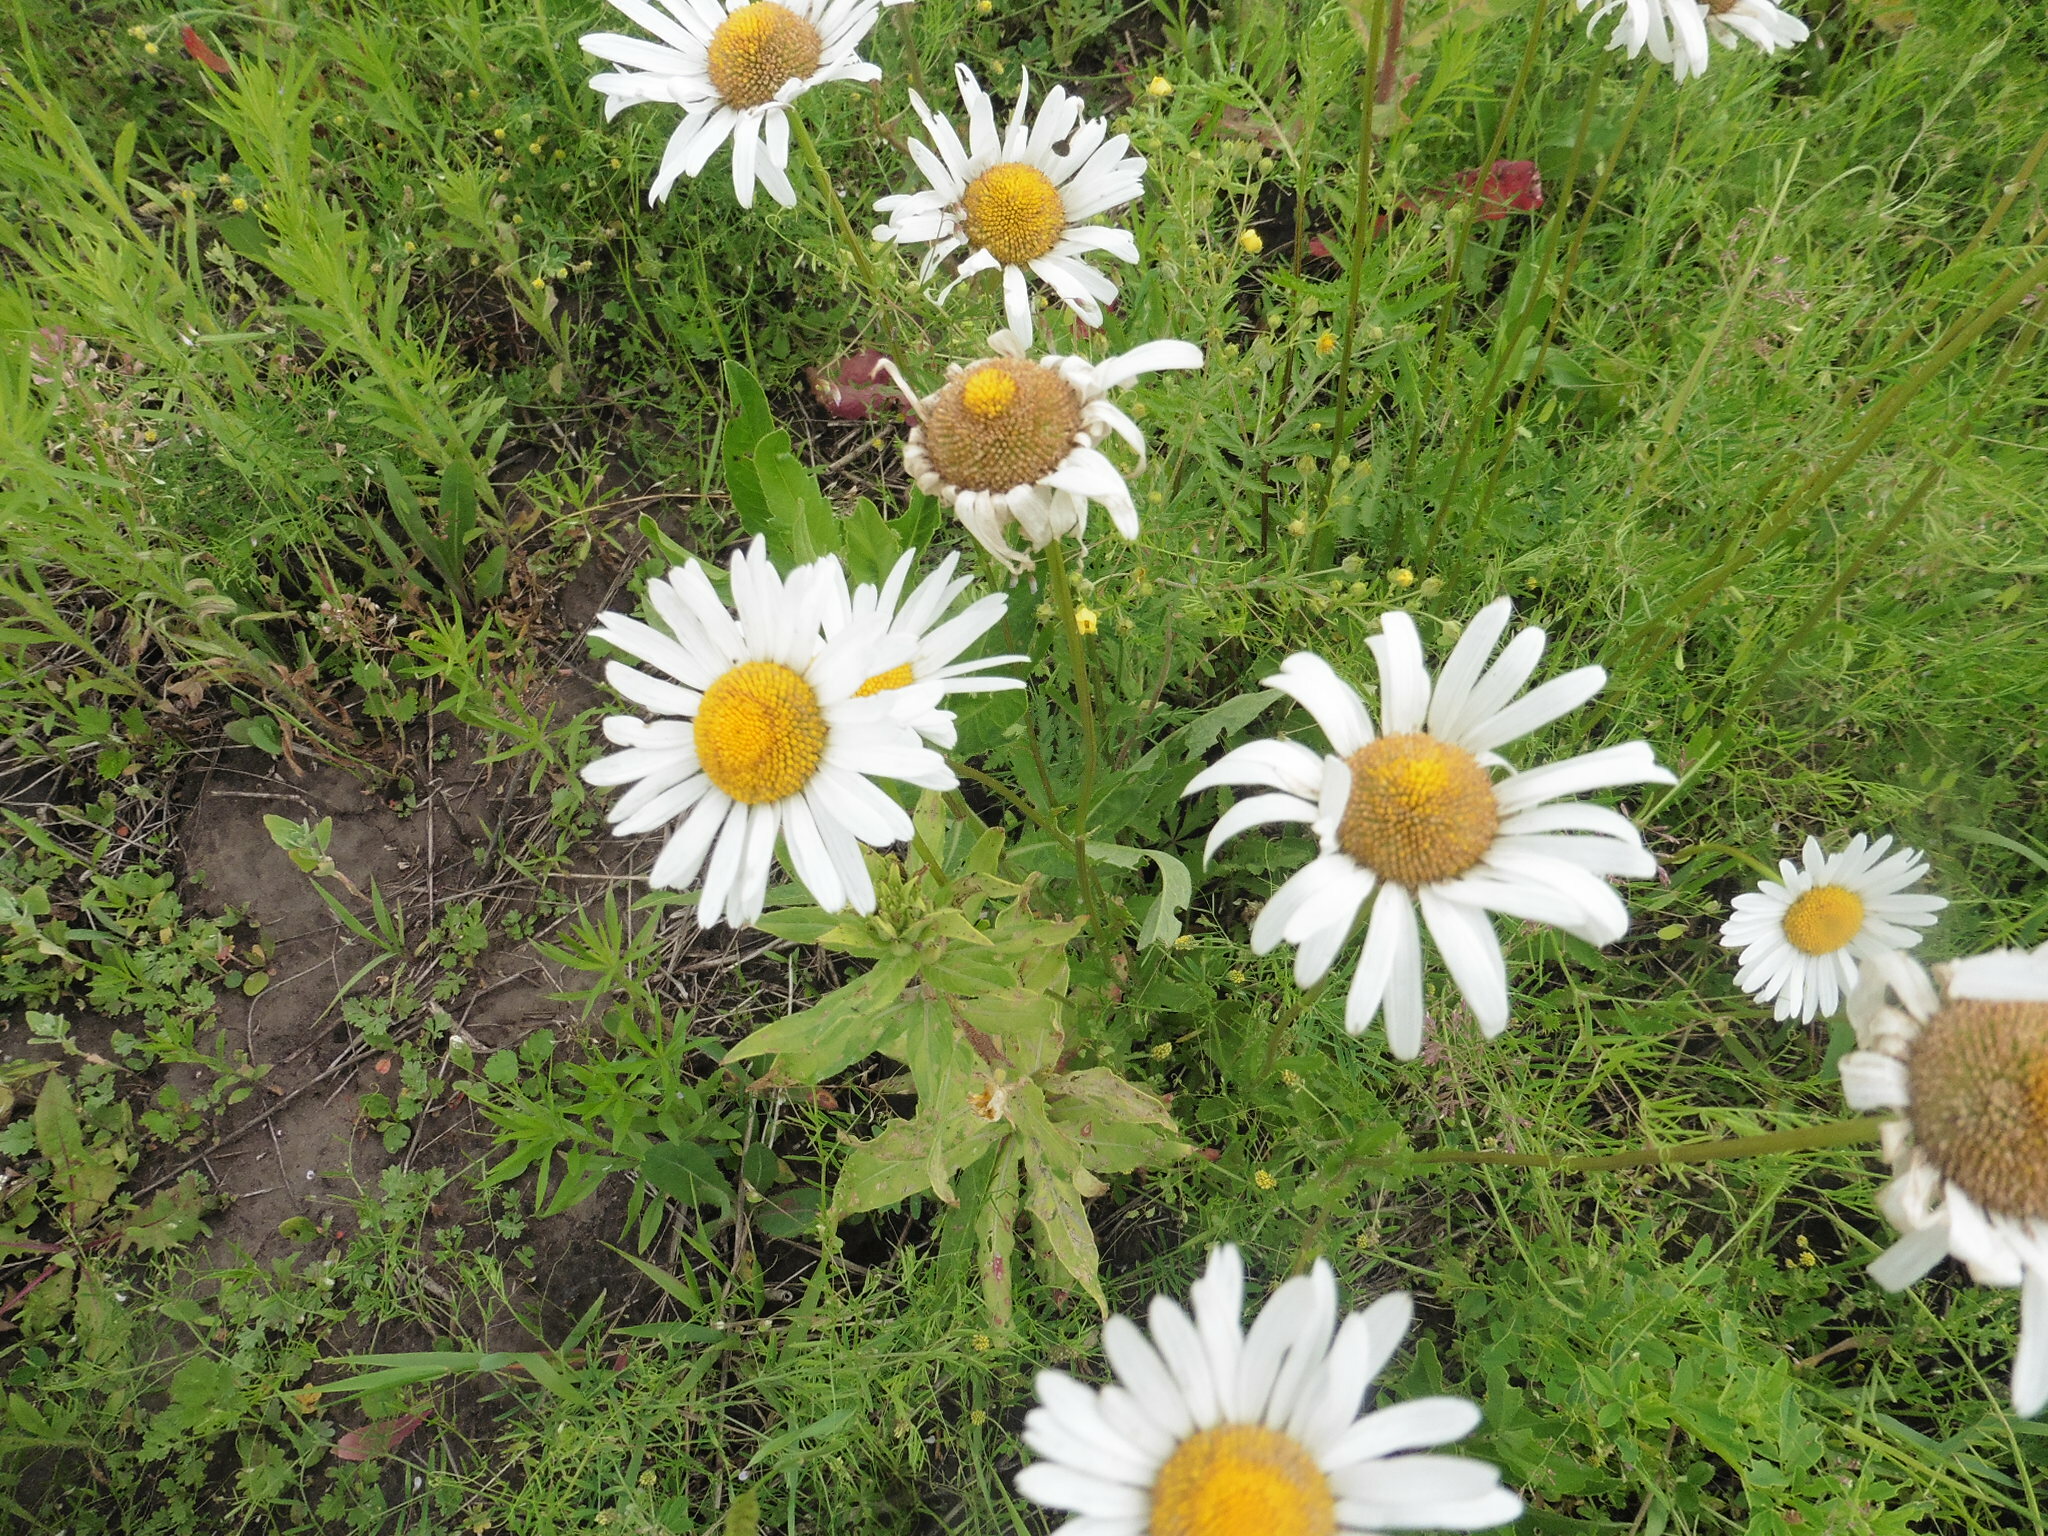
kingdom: Plantae
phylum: Tracheophyta
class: Magnoliopsida
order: Asterales
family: Asteraceae
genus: Leucanthemum
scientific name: Leucanthemum vulgare
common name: Oxeye daisy
